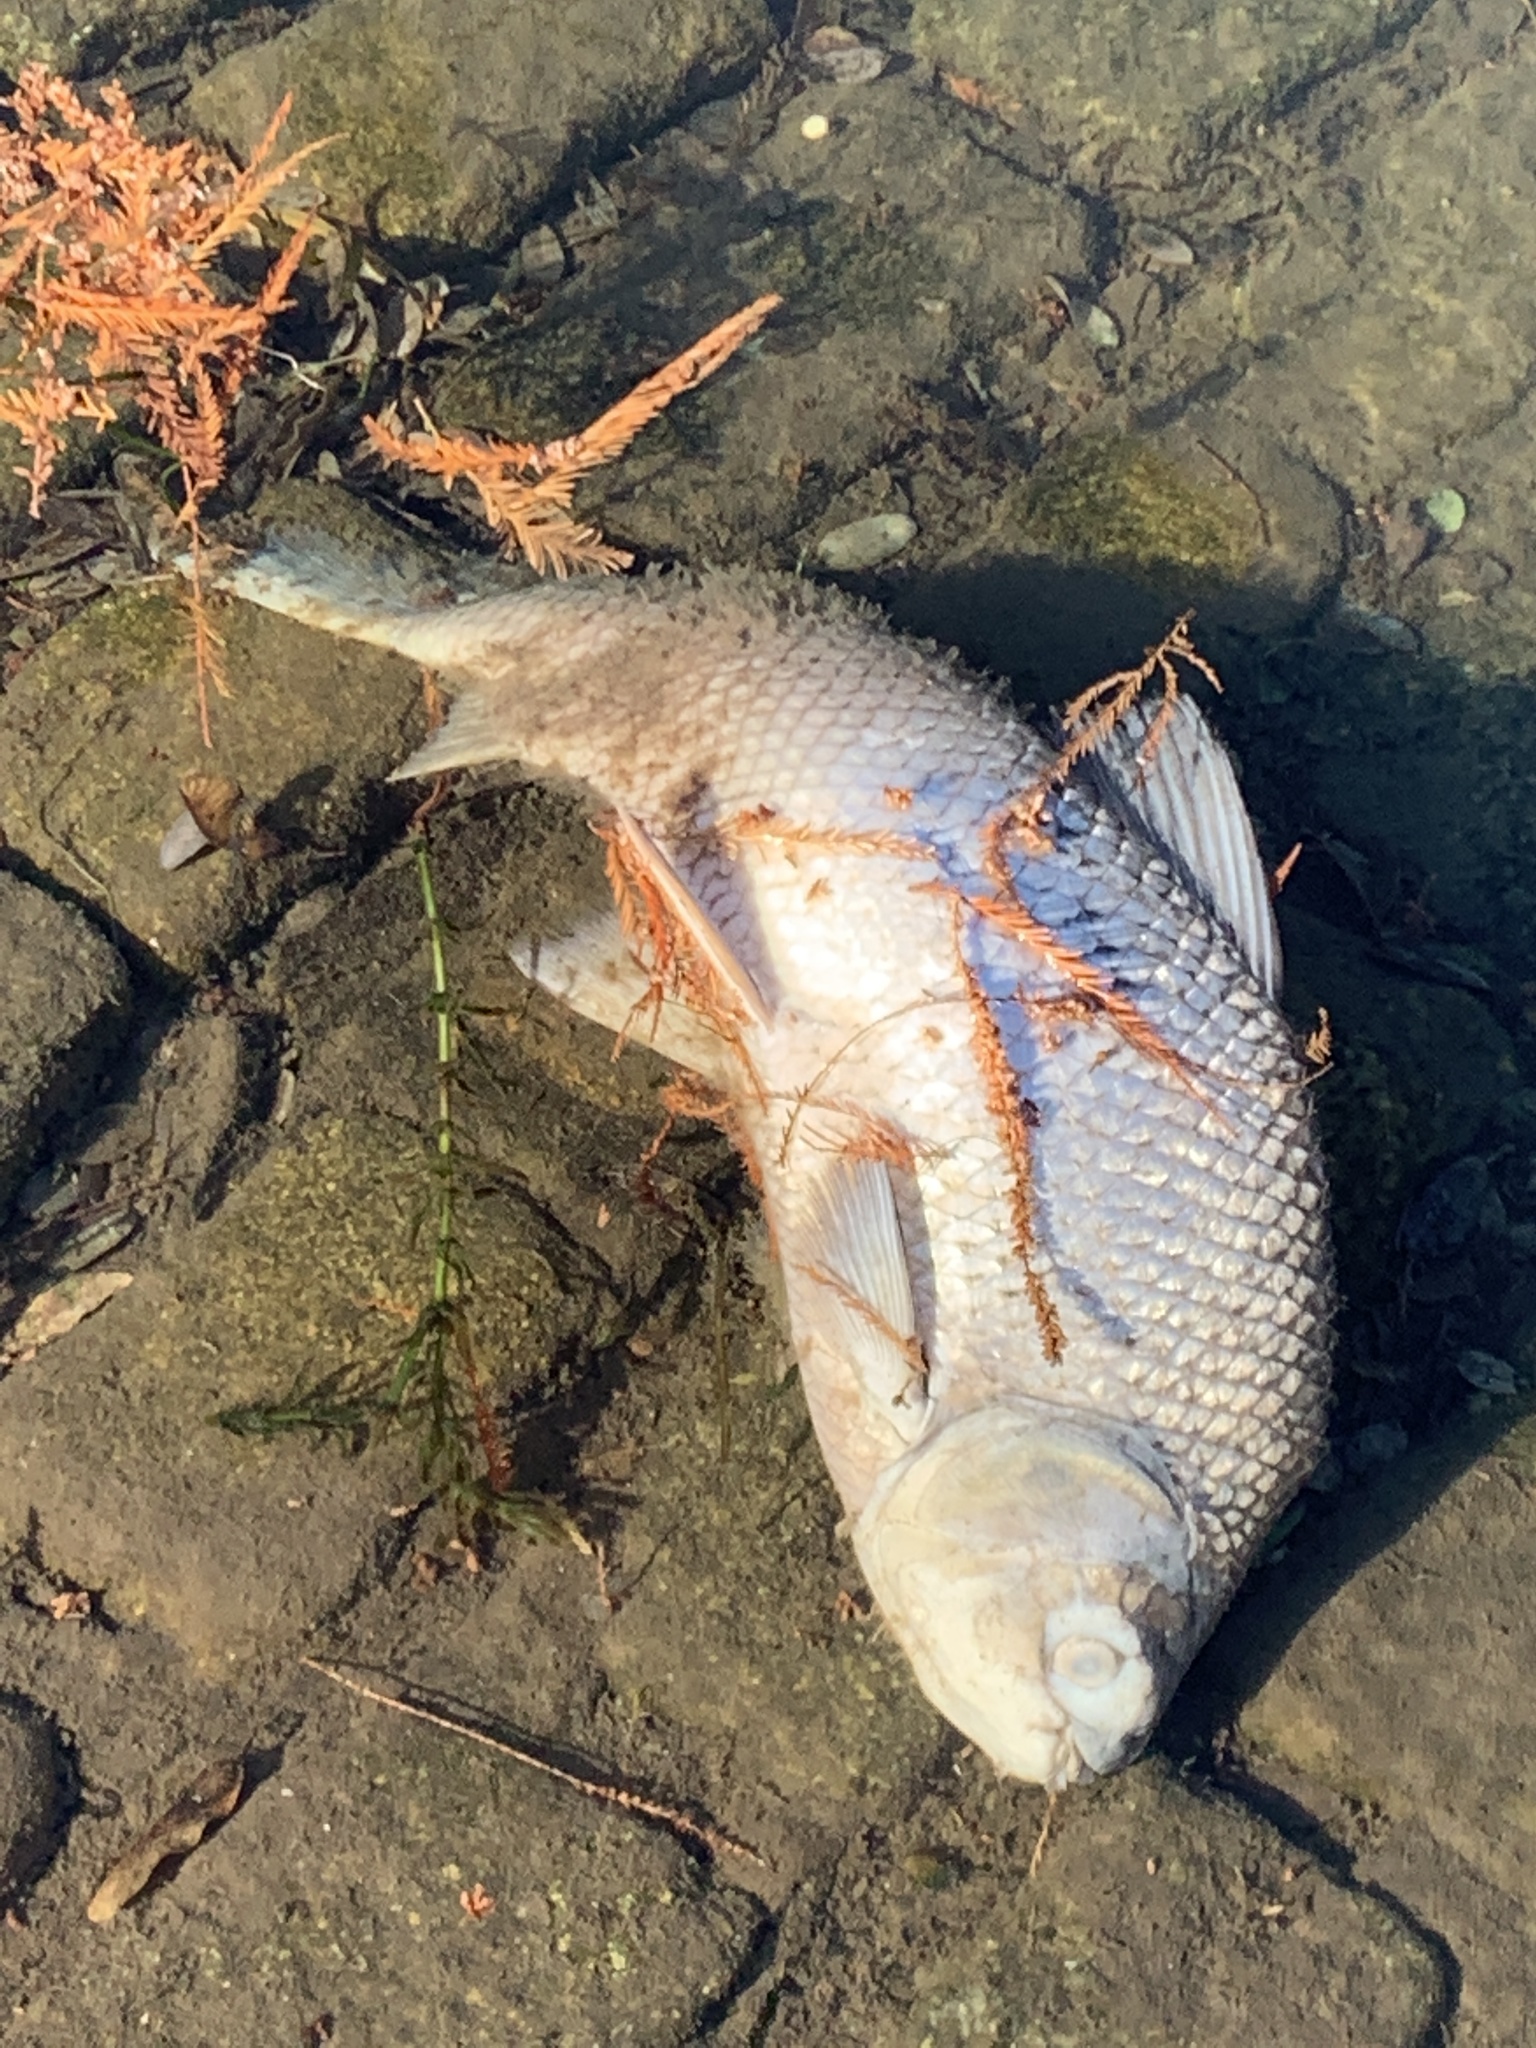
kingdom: Animalia
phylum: Chordata
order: Characiformes
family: Prochilodontidae
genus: Prochilodus
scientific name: Prochilodus lineatus
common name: Curimbata
